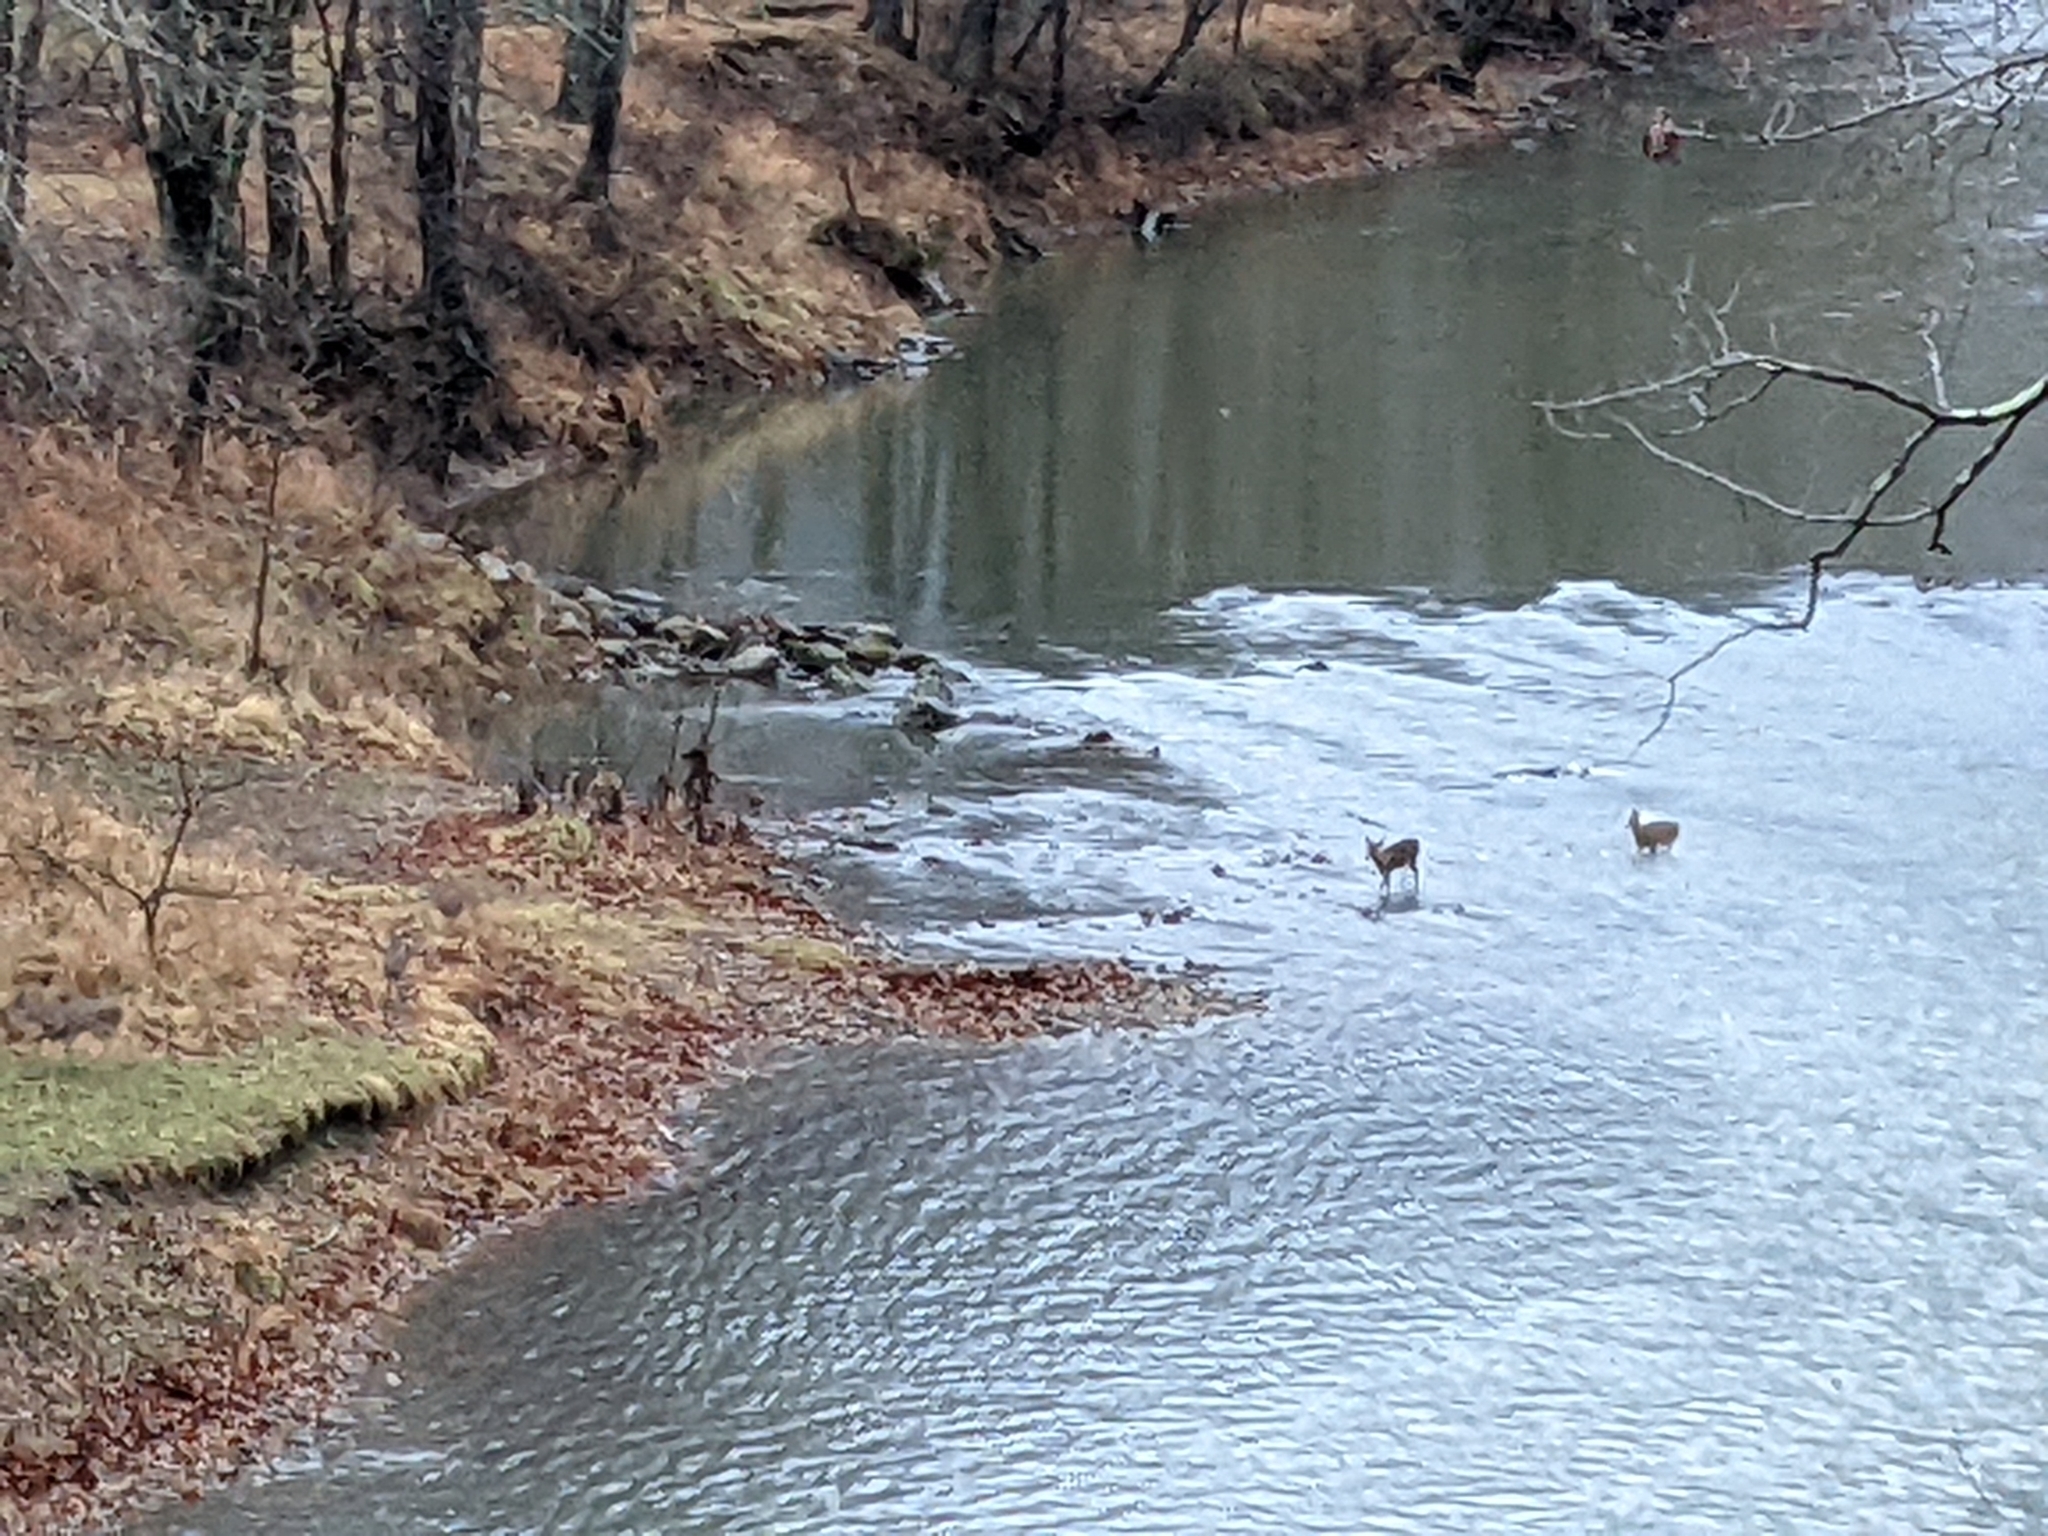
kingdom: Animalia
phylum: Chordata
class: Mammalia
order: Artiodactyla
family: Cervidae
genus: Odocoileus
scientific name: Odocoileus virginianus
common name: White-tailed deer
